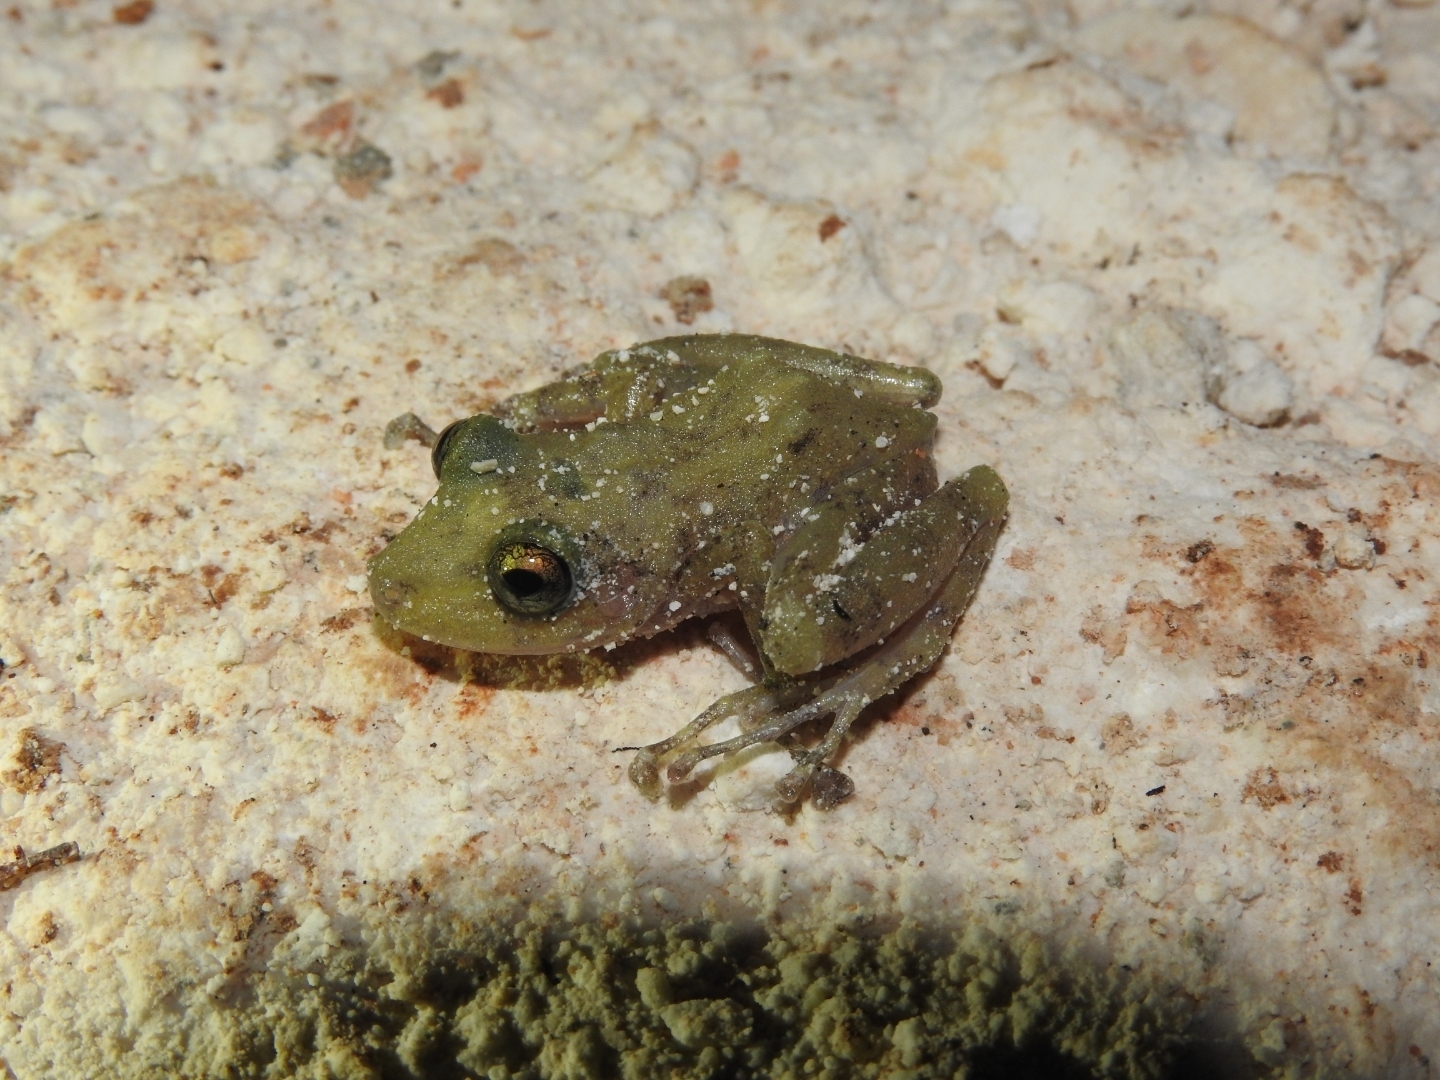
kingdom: Animalia
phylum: Chordata
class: Amphibia
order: Anura
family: Craugastoridae
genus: Craugastor
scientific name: Craugastor yucatanensis
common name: Yucatan rainfrog
